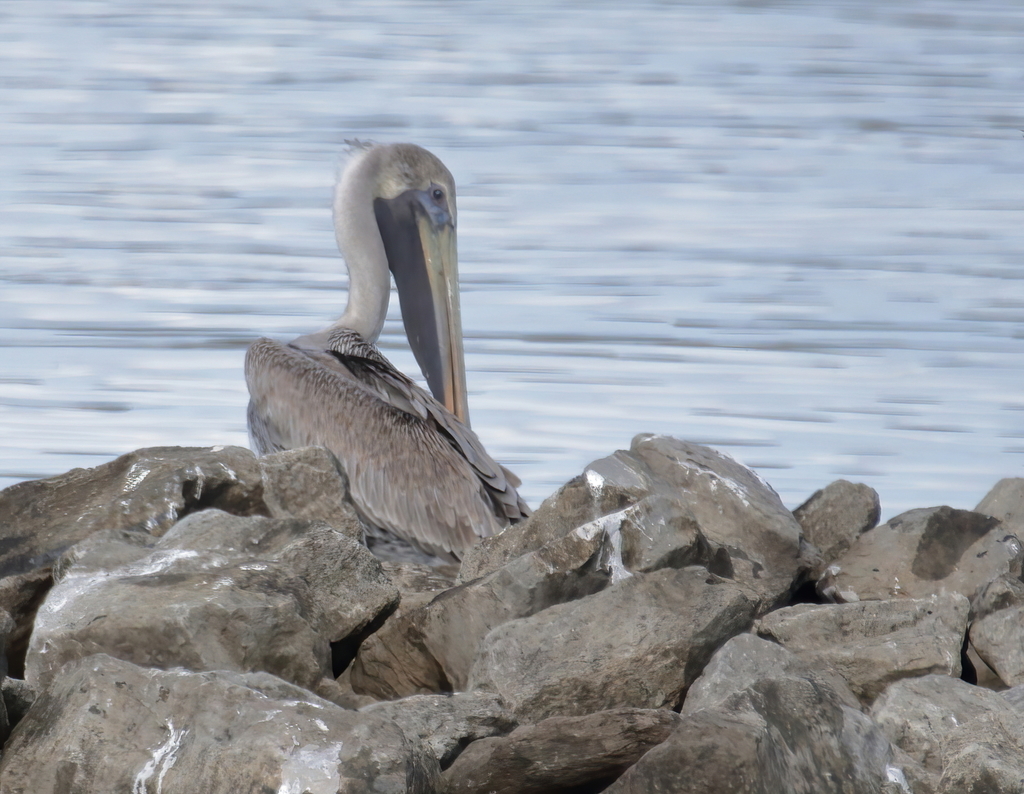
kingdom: Animalia
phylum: Chordata
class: Aves
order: Pelecaniformes
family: Pelecanidae
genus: Pelecanus
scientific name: Pelecanus occidentalis
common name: Brown pelican
